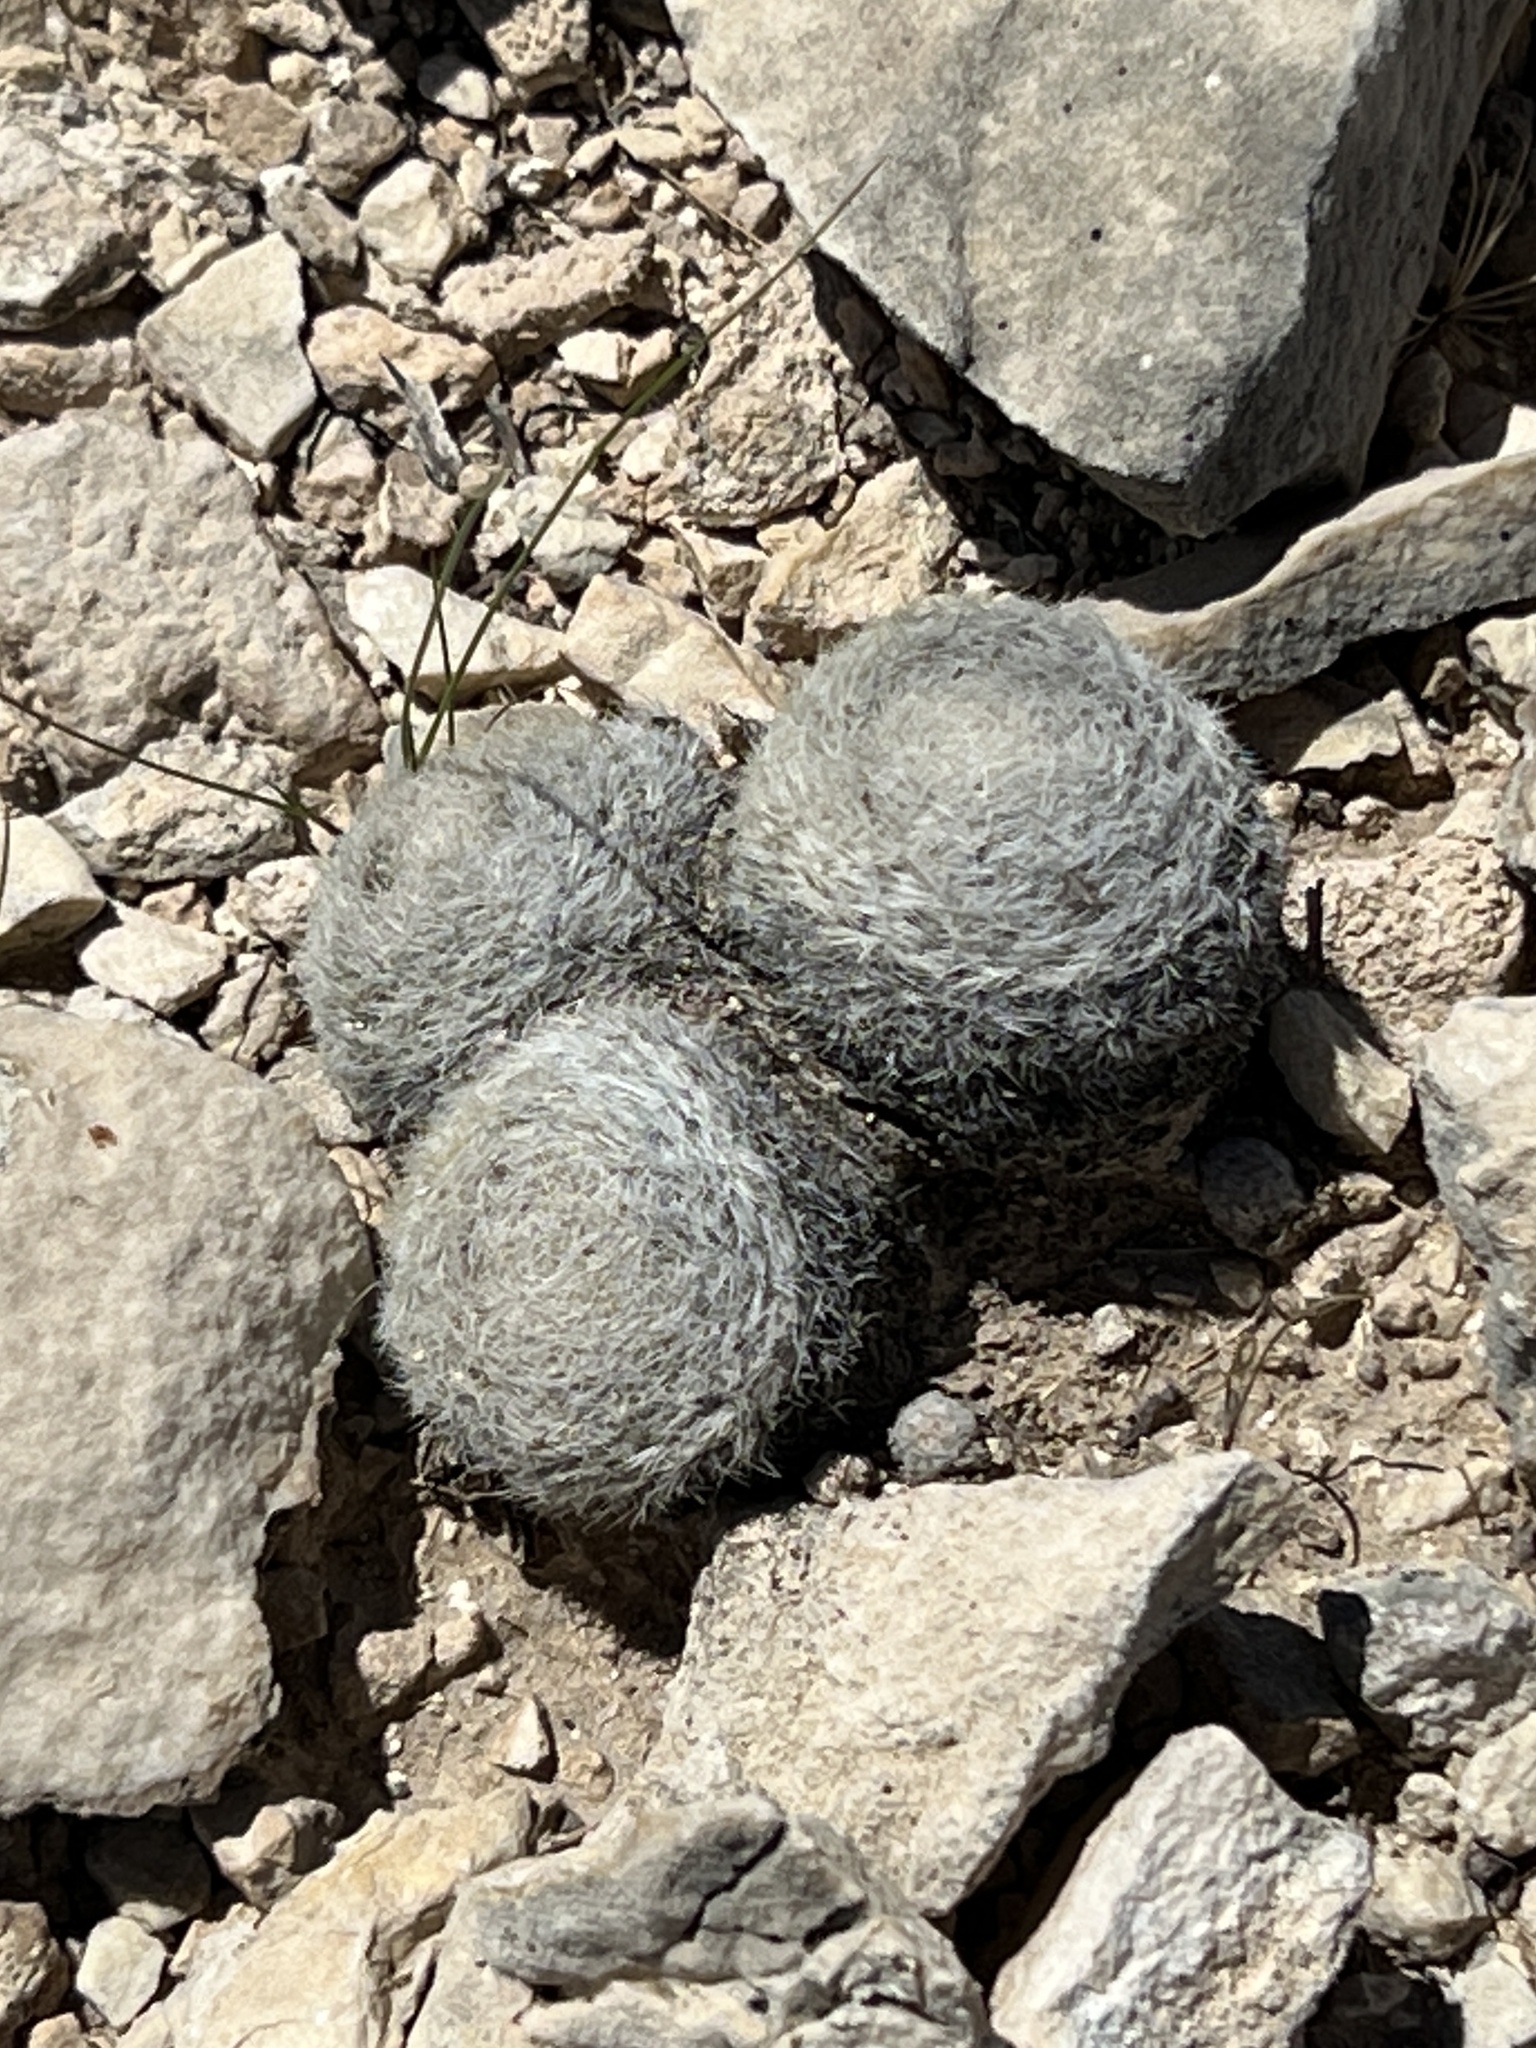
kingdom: Plantae
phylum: Tracheophyta
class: Magnoliopsida
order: Caryophyllales
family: Cactaceae
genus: Mammillaria
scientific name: Mammillaria lasiacantha
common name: Lace-spine nipple cactus
